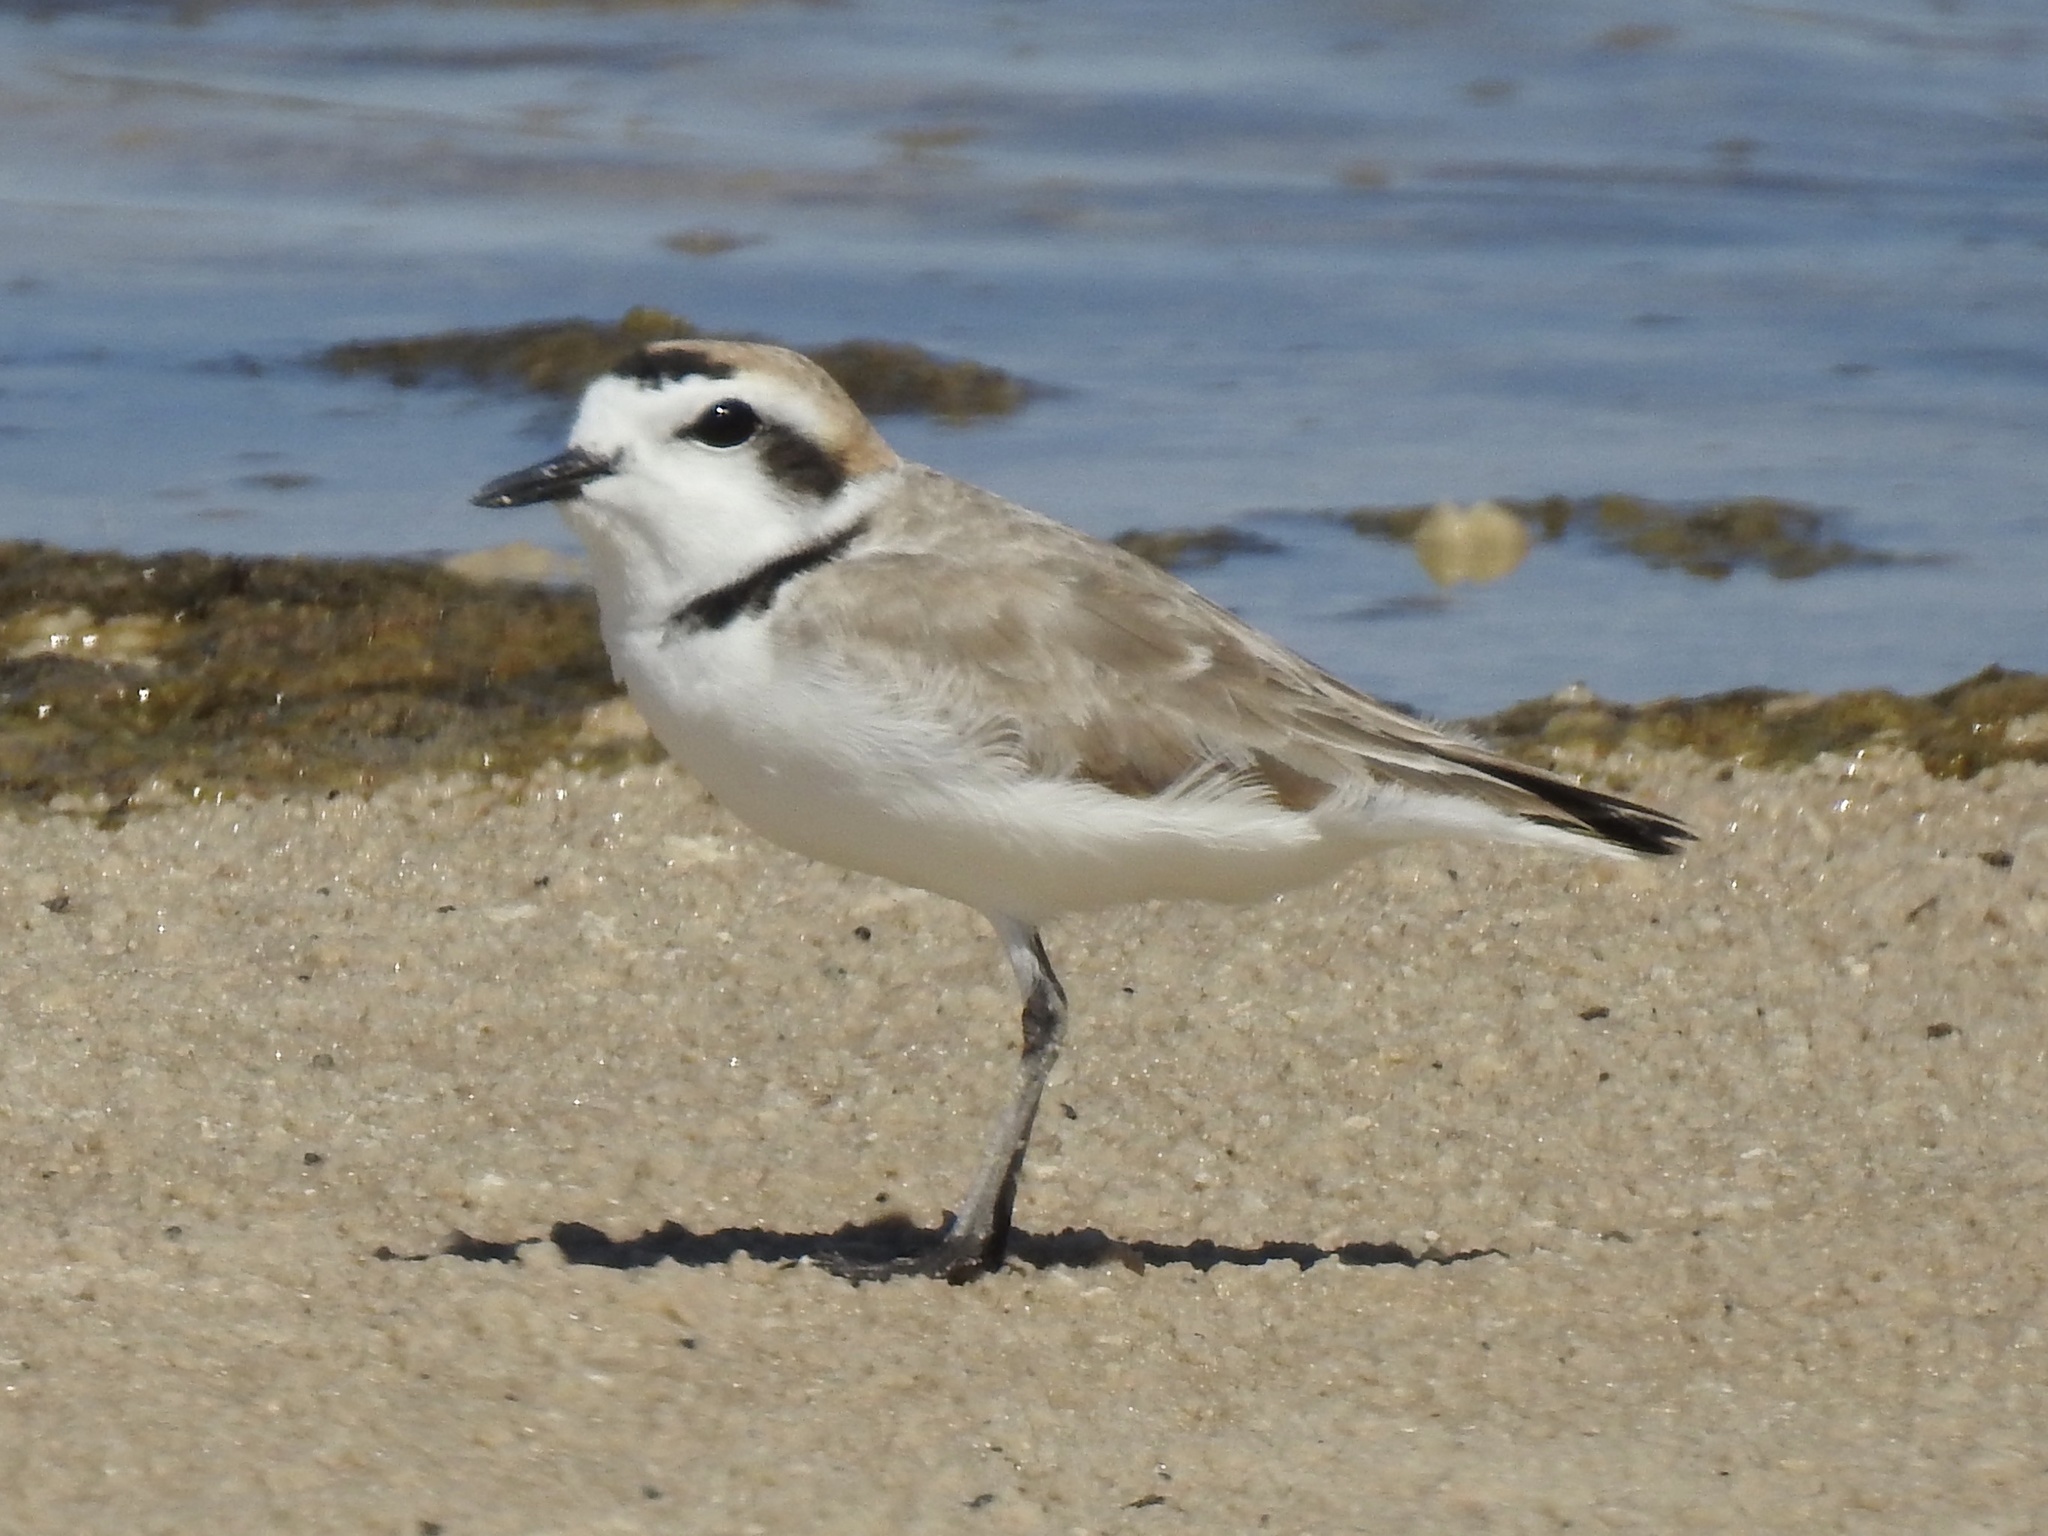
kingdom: Animalia
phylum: Chordata
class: Aves
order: Charadriiformes
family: Charadriidae
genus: Anarhynchus
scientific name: Anarhynchus
